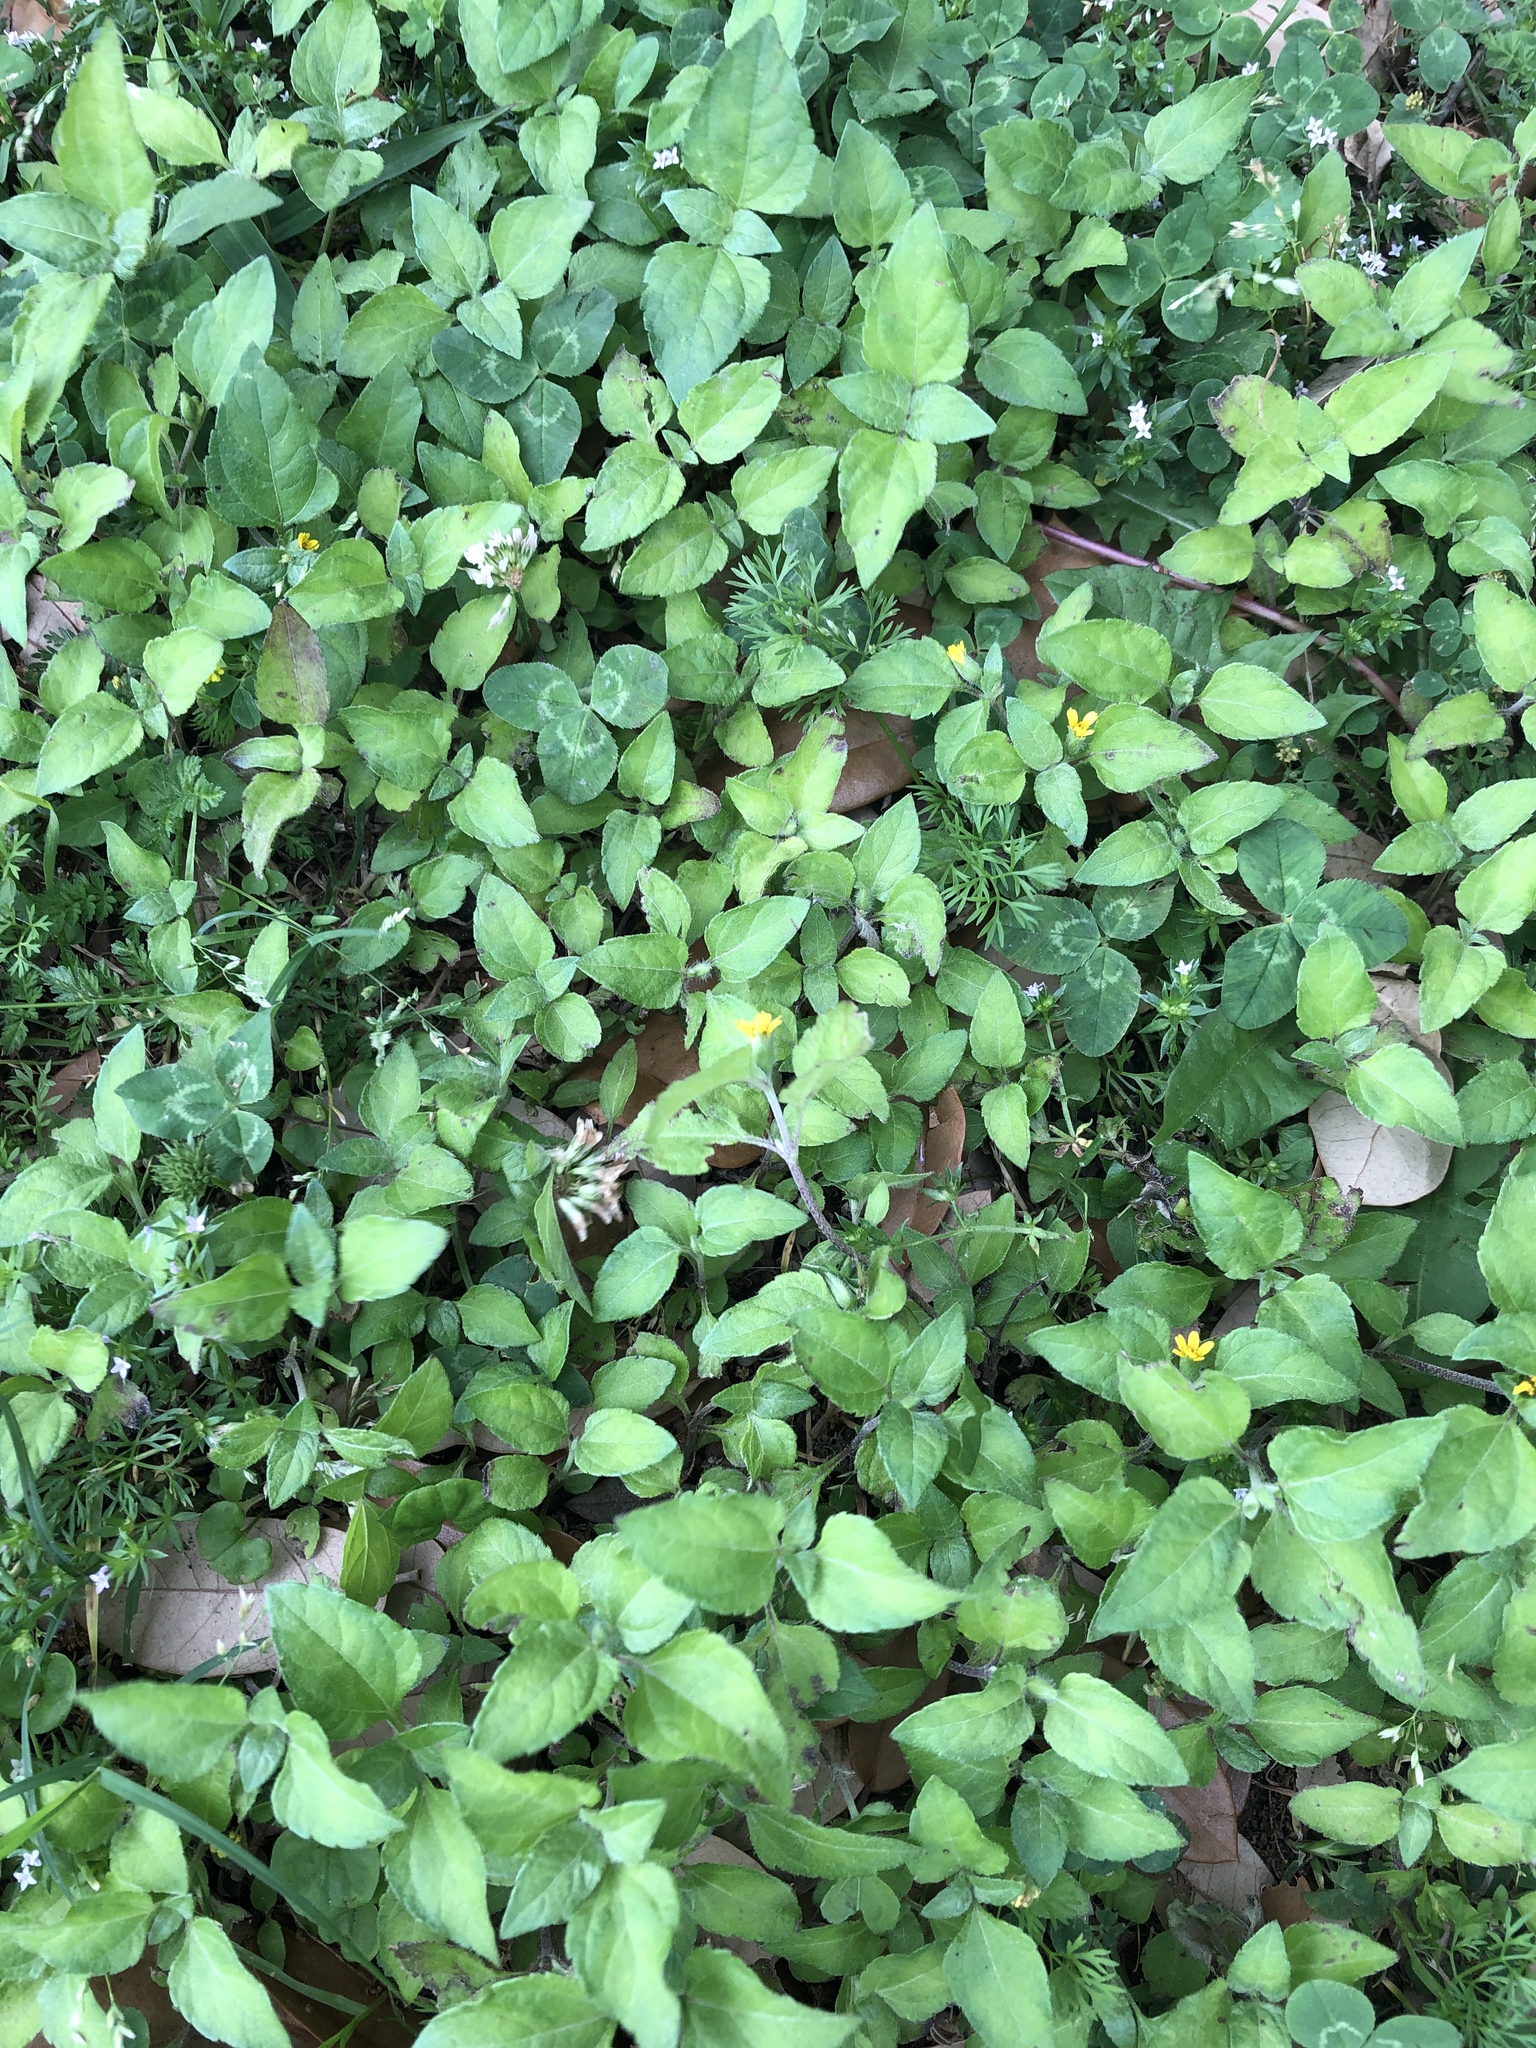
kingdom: Plantae
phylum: Tracheophyta
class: Magnoliopsida
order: Asterales
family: Asteraceae
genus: Calyptocarpus
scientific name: Calyptocarpus vialis
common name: Straggler daisy
